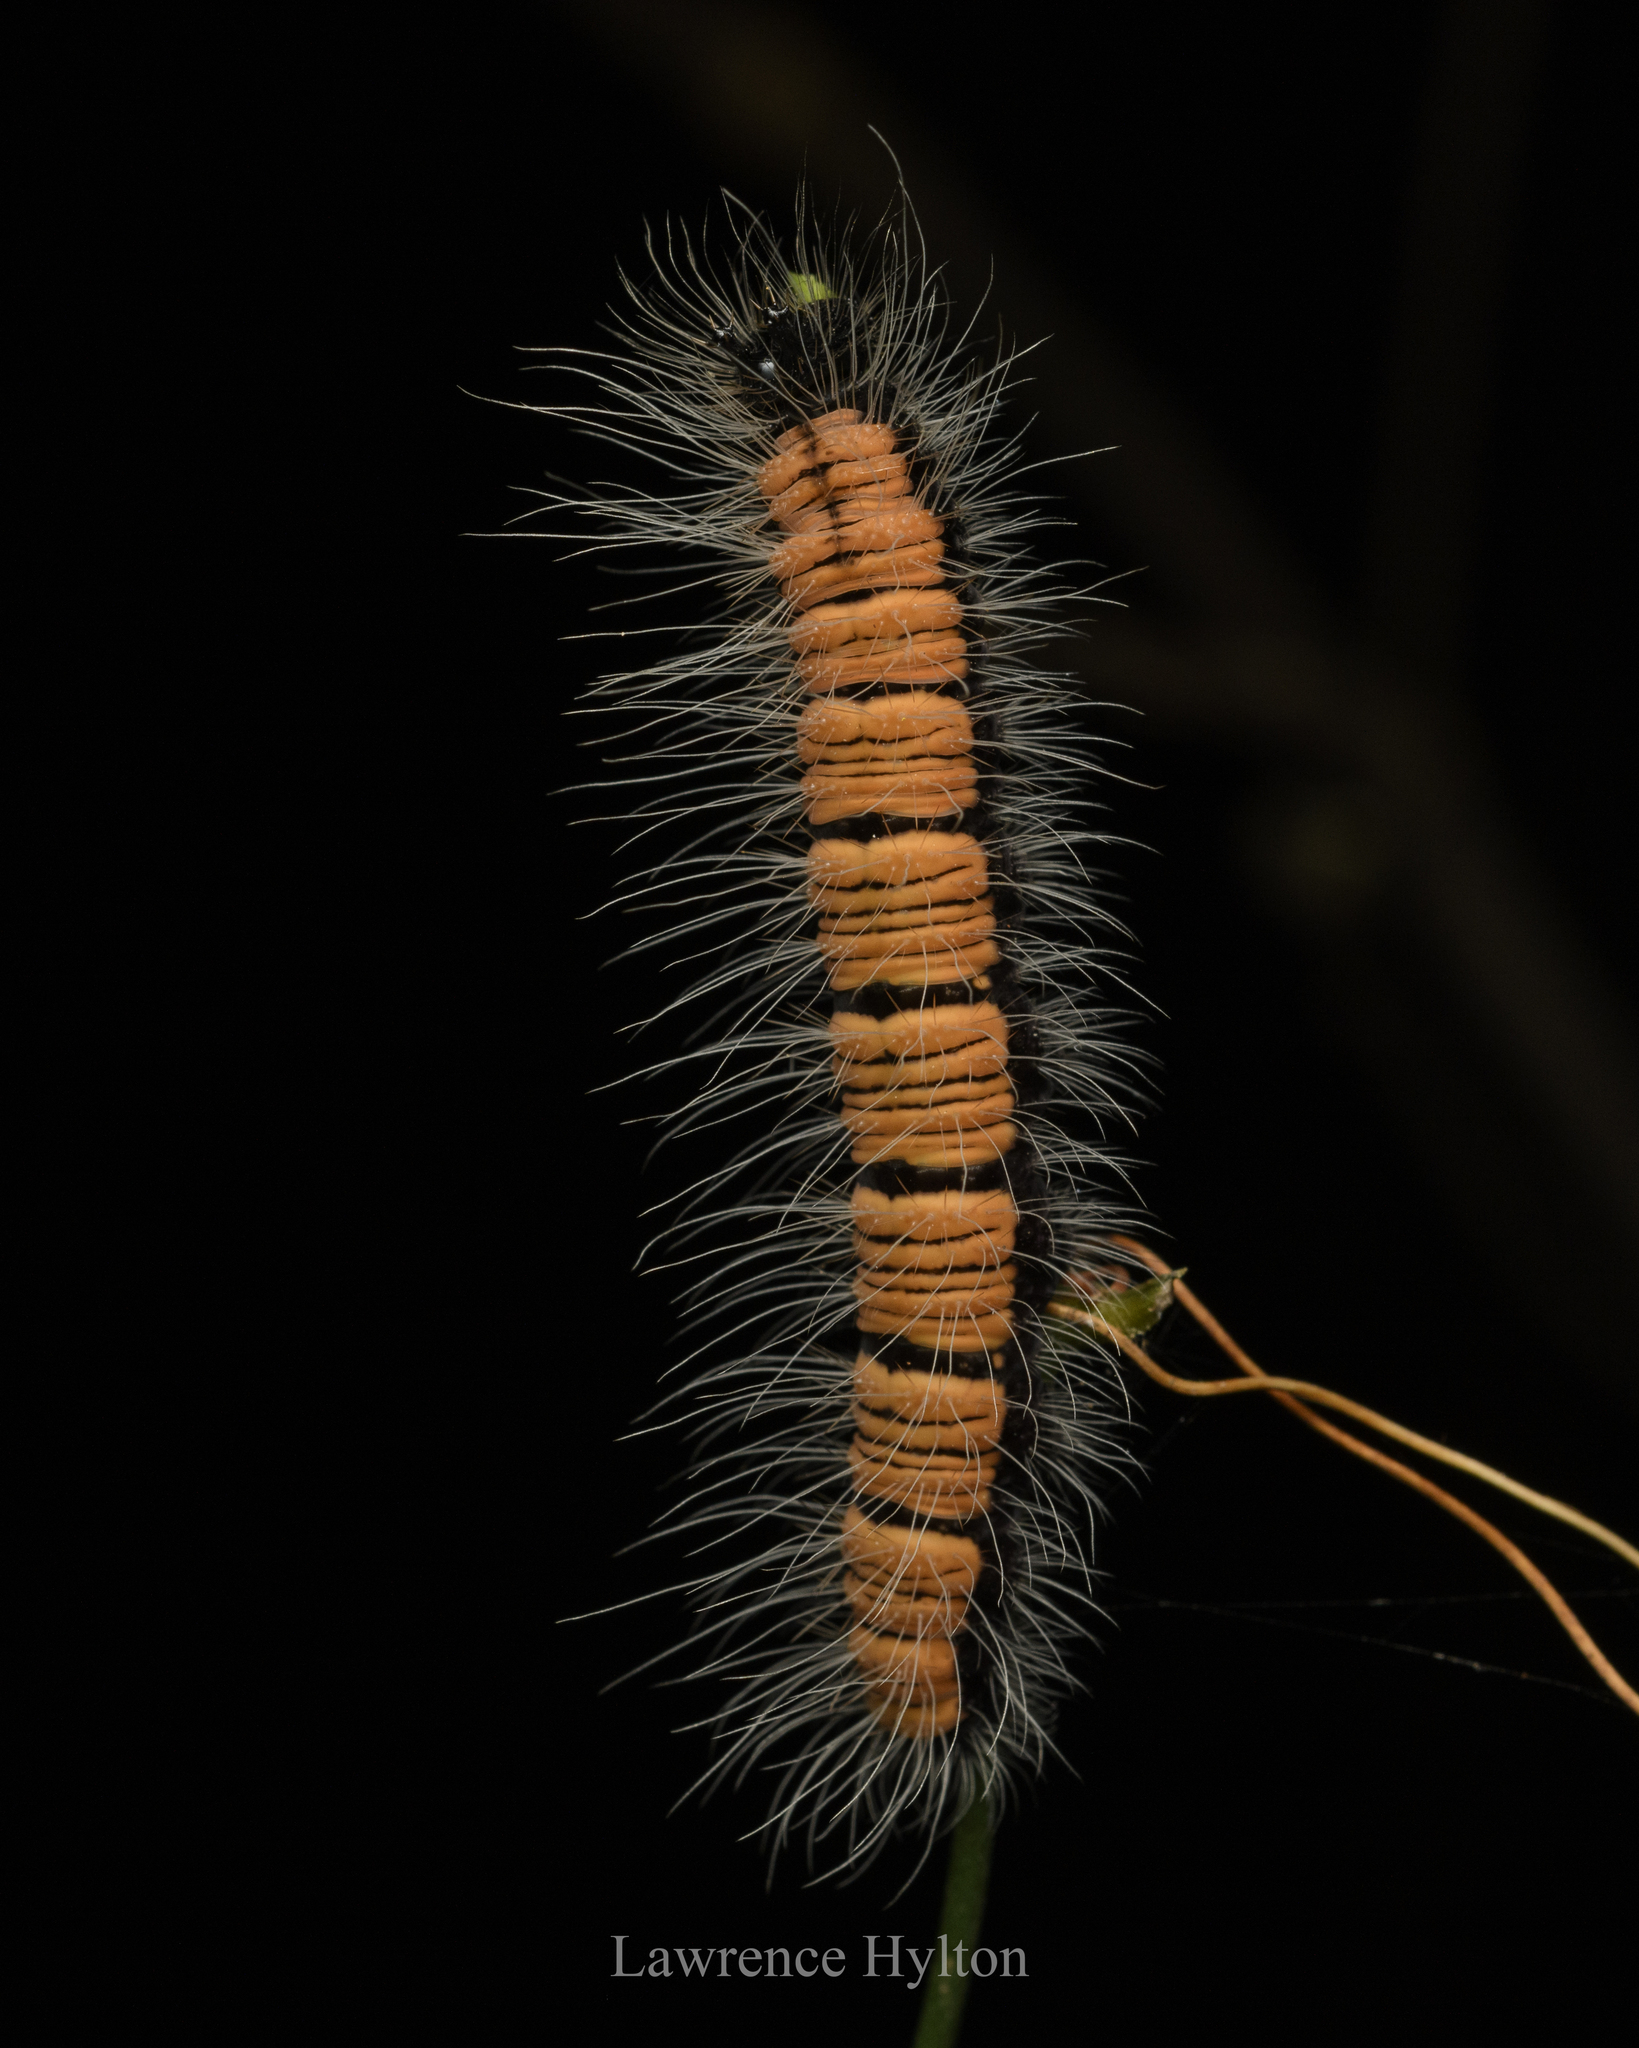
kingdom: Animalia
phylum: Arthropoda
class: Insecta
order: Lepidoptera
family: Nymphalidae
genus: Faunis
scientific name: Faunis eumeus
